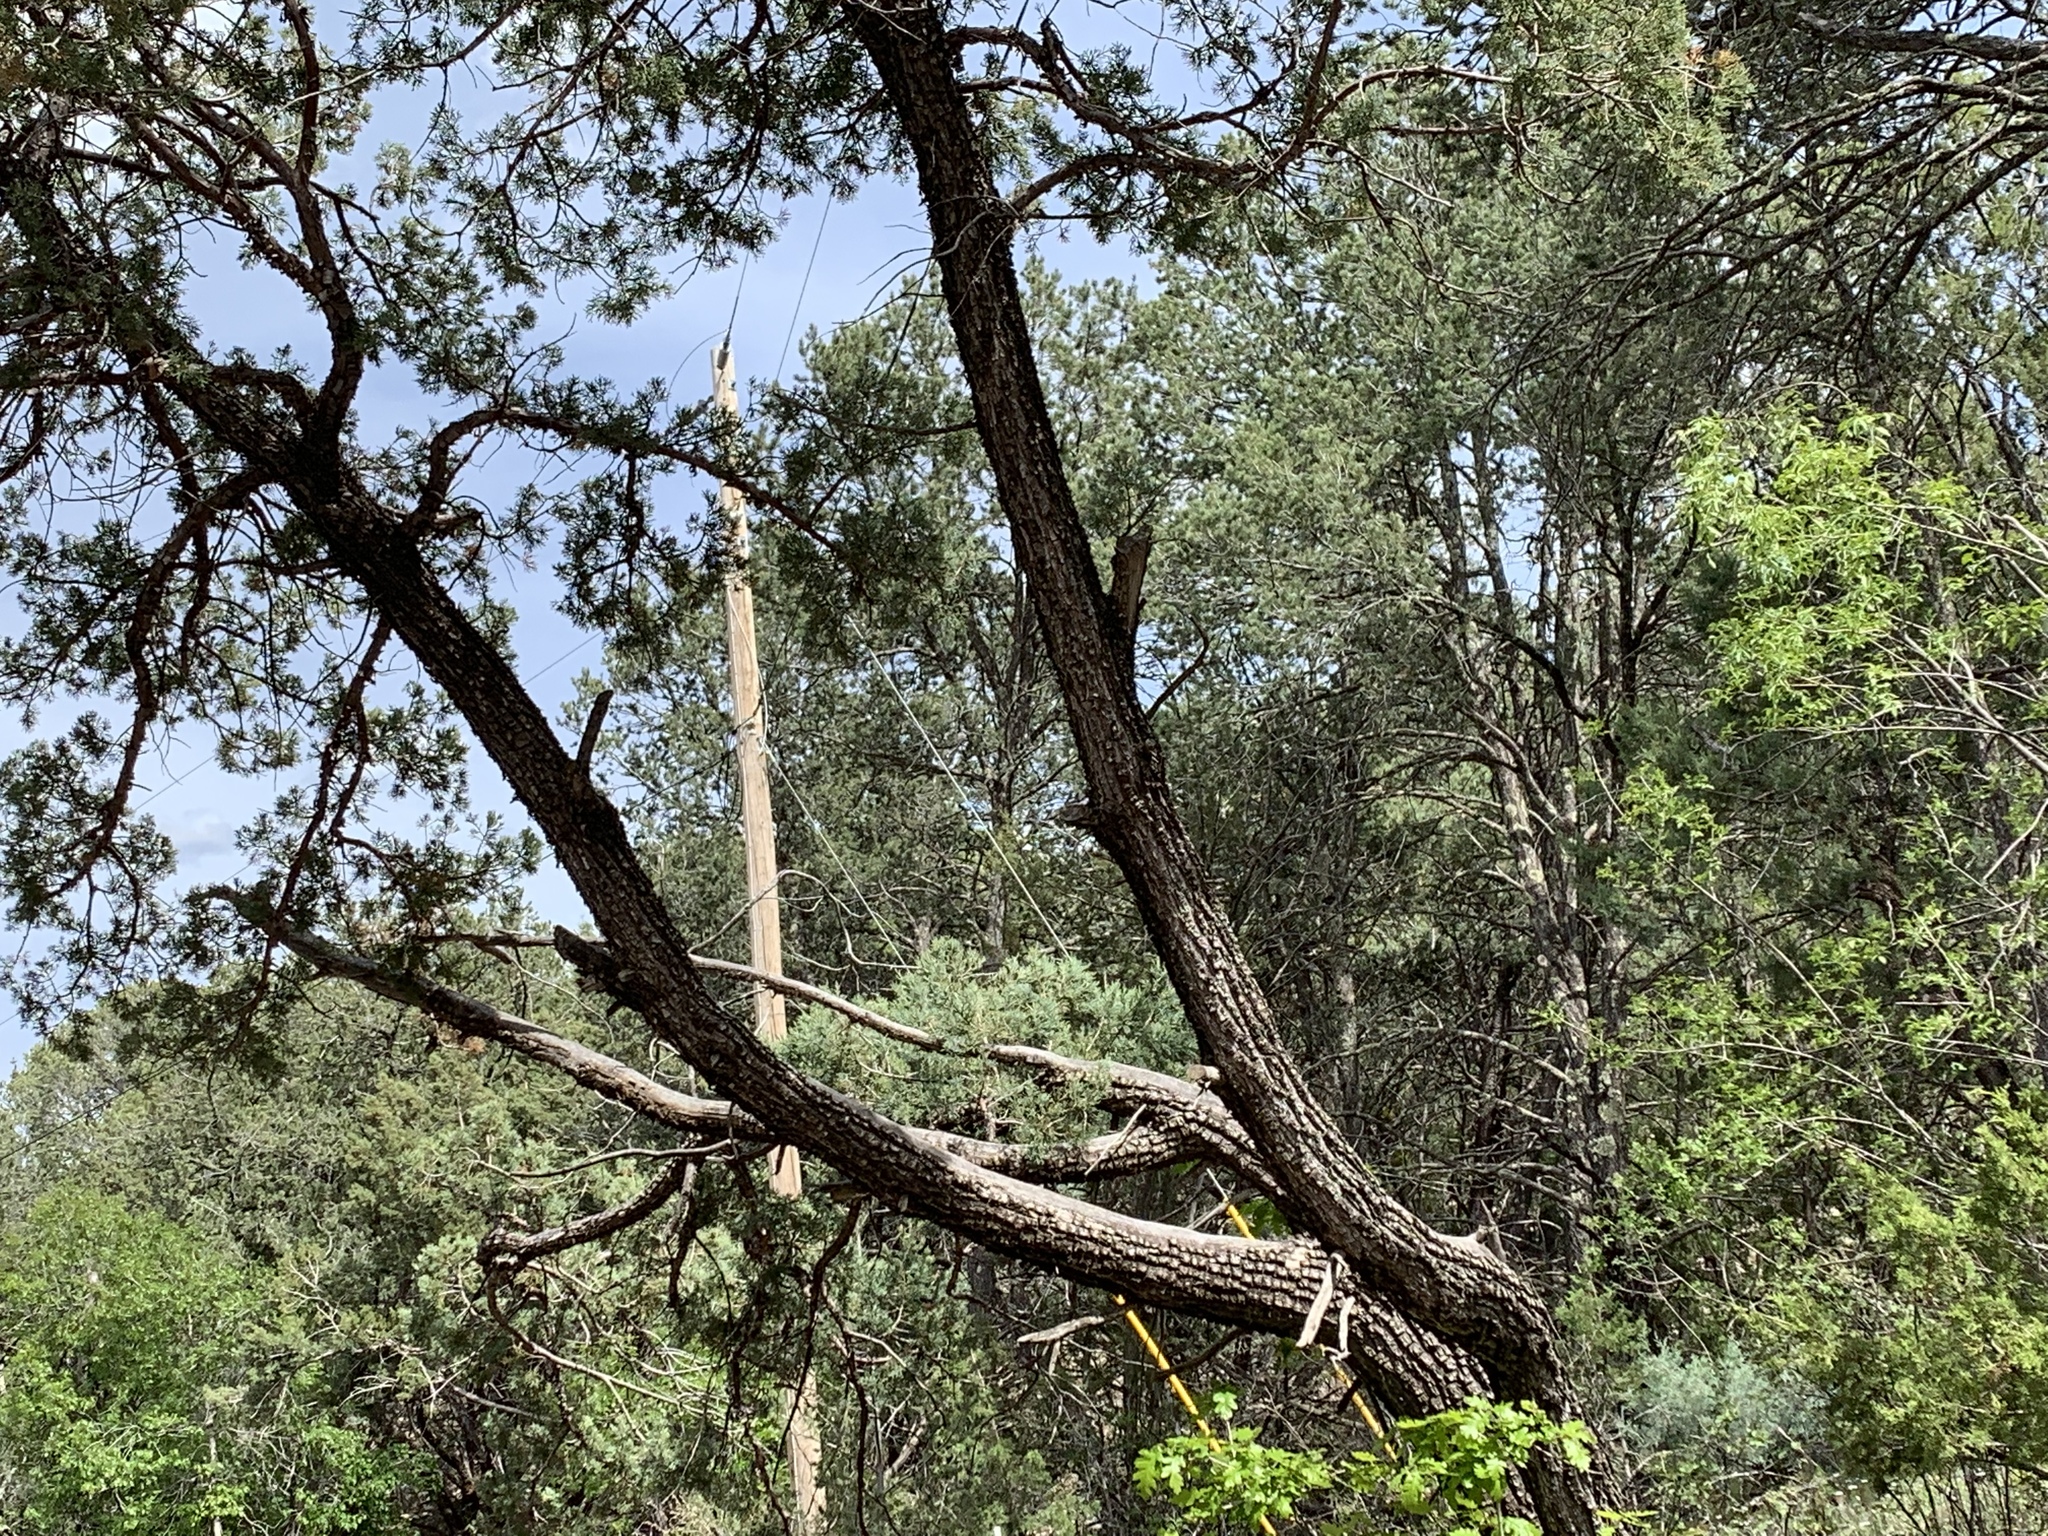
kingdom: Plantae
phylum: Tracheophyta
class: Pinopsida
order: Pinales
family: Cupressaceae
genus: Juniperus
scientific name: Juniperus deppeana
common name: Alligator juniper
